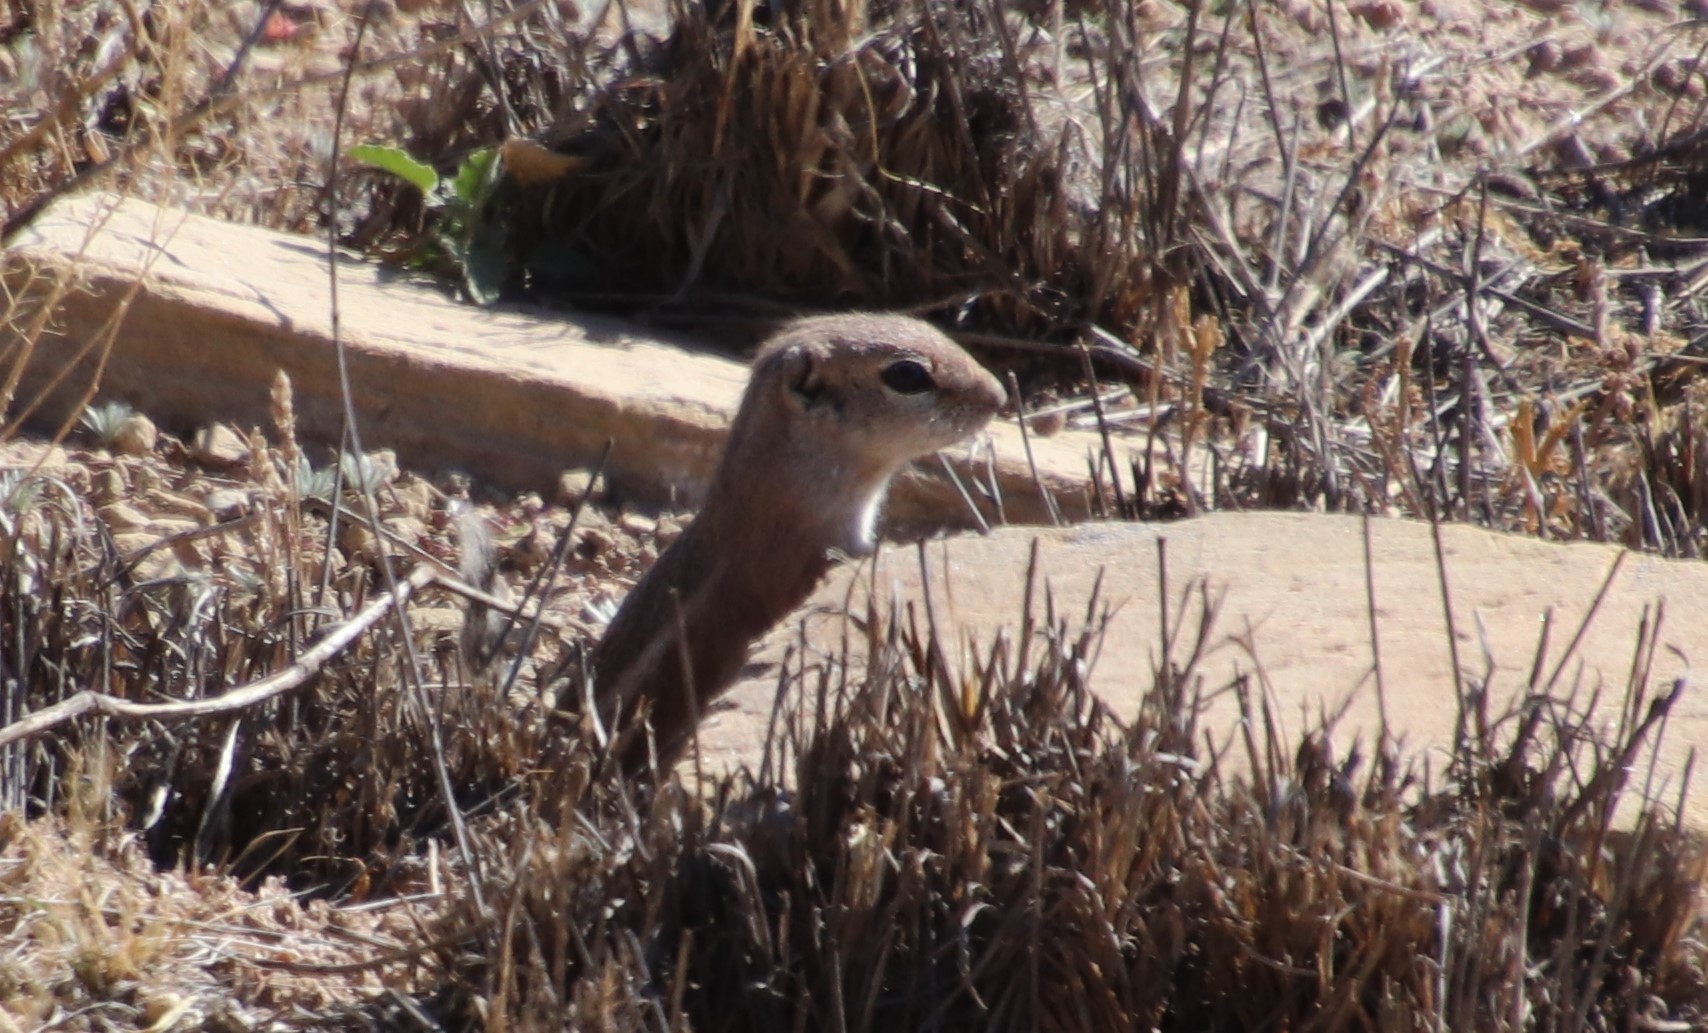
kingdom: Animalia
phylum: Chordata
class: Mammalia
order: Rodentia
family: Sciuridae
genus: Ammospermophilus
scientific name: Ammospermophilus leucurus
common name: White-tailed antelope squirrel
